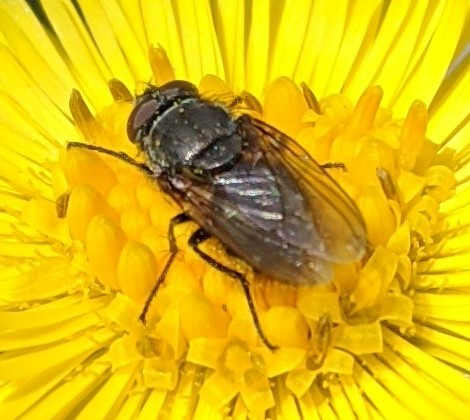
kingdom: Animalia
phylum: Arthropoda
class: Insecta
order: Diptera
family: Polleniidae
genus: Pollenia
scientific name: Pollenia
